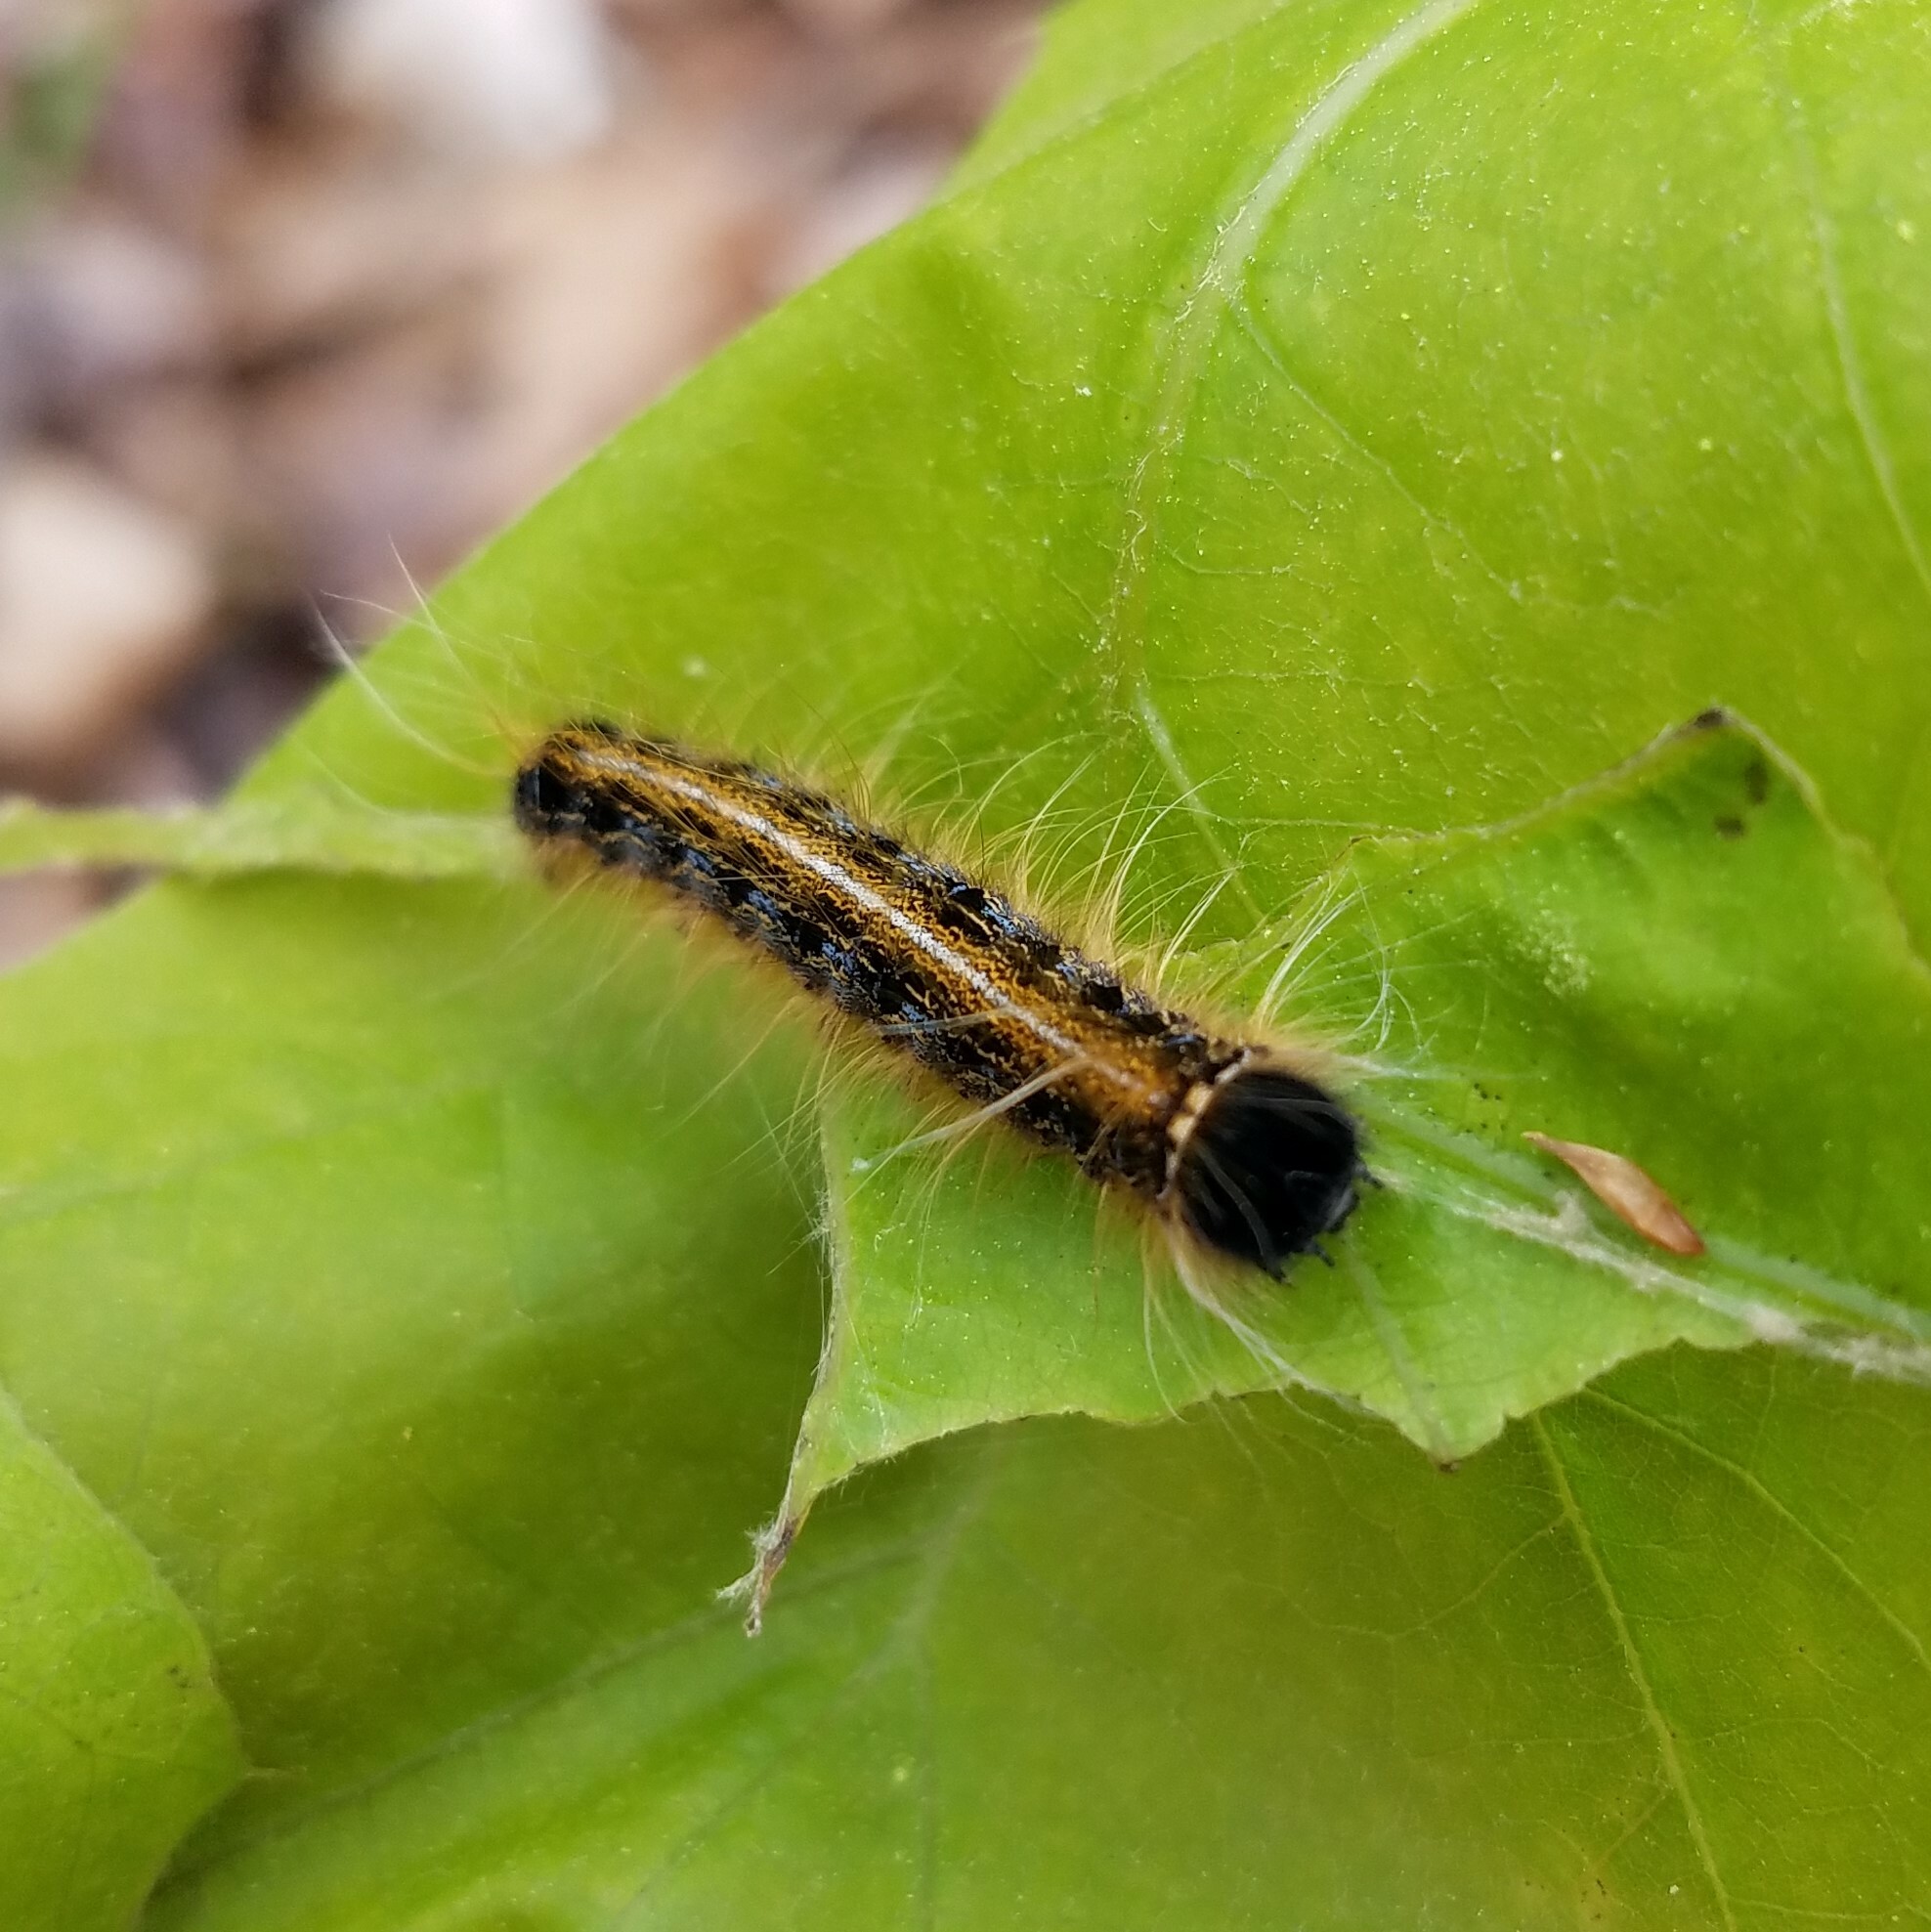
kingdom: Animalia
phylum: Arthropoda
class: Insecta
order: Lepidoptera
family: Lasiocampidae
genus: Malacosoma
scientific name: Malacosoma americana
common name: Eastern tent caterpillar moth
